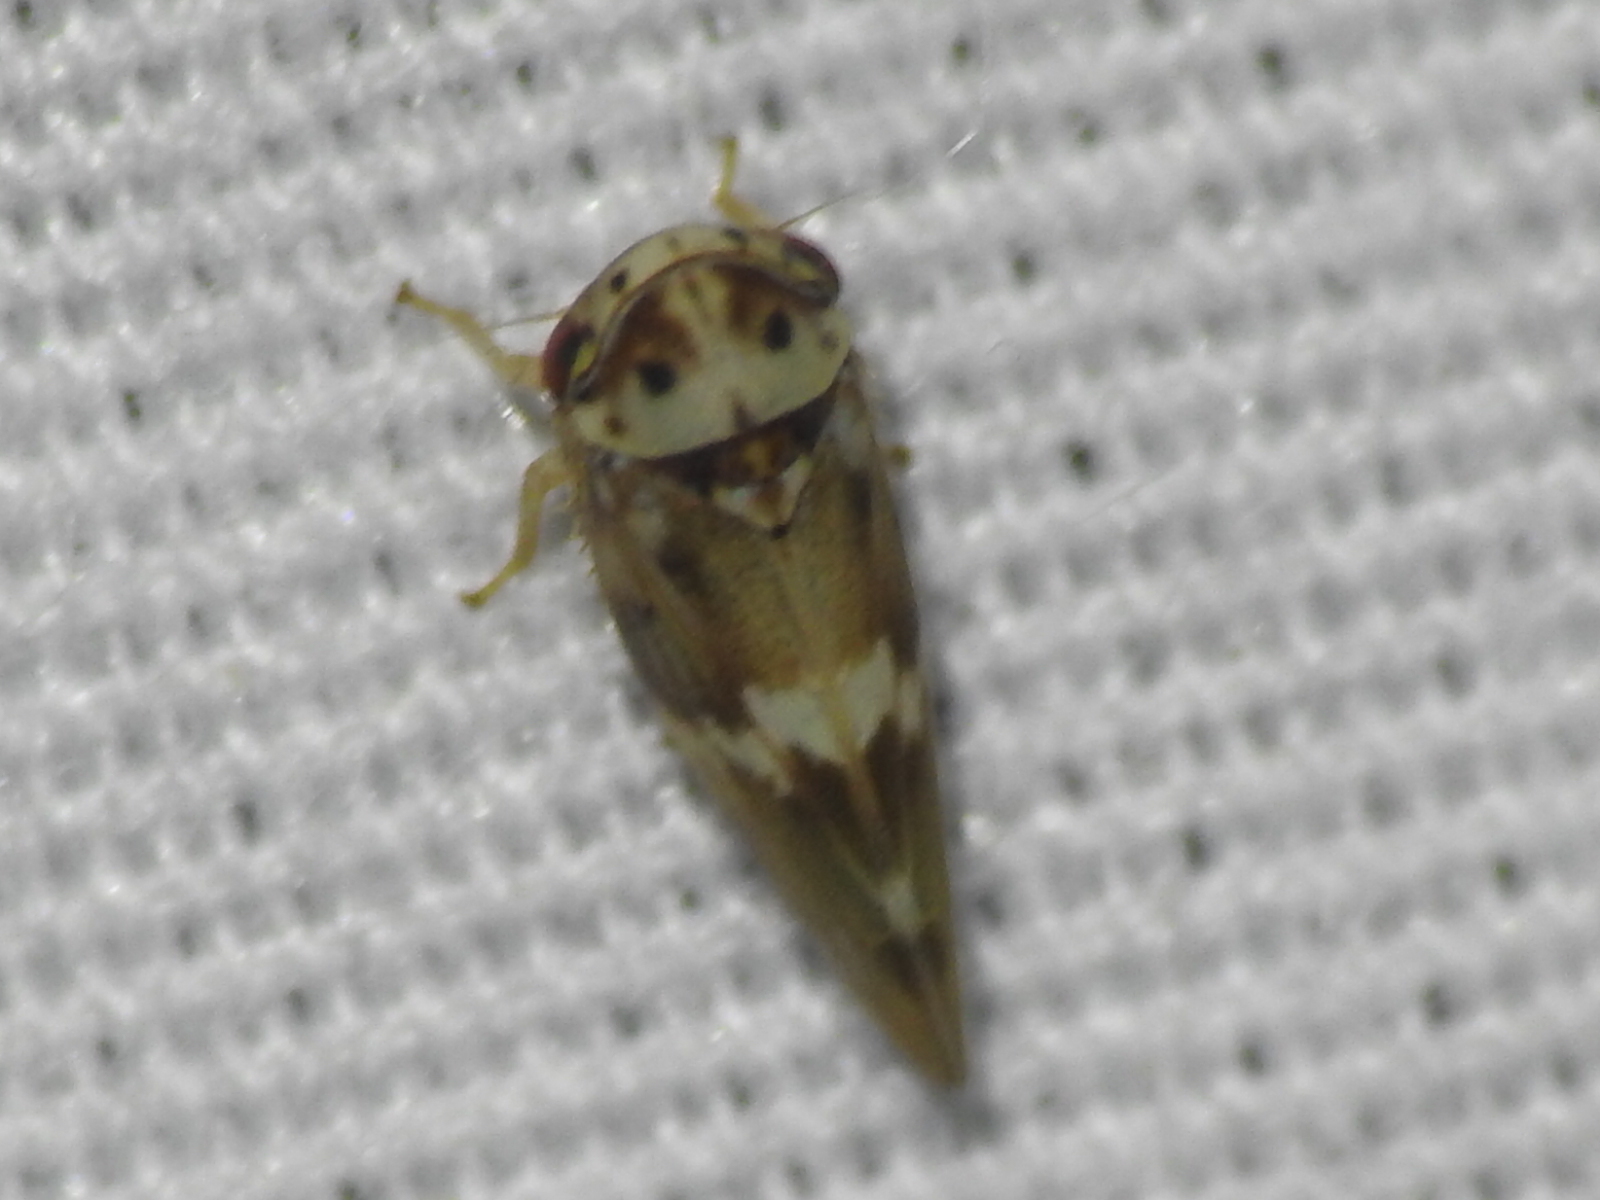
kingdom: Animalia
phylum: Arthropoda
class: Insecta
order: Hemiptera
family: Cicadellidae
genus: Agalliopsis
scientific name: Agalliopsis cervina
